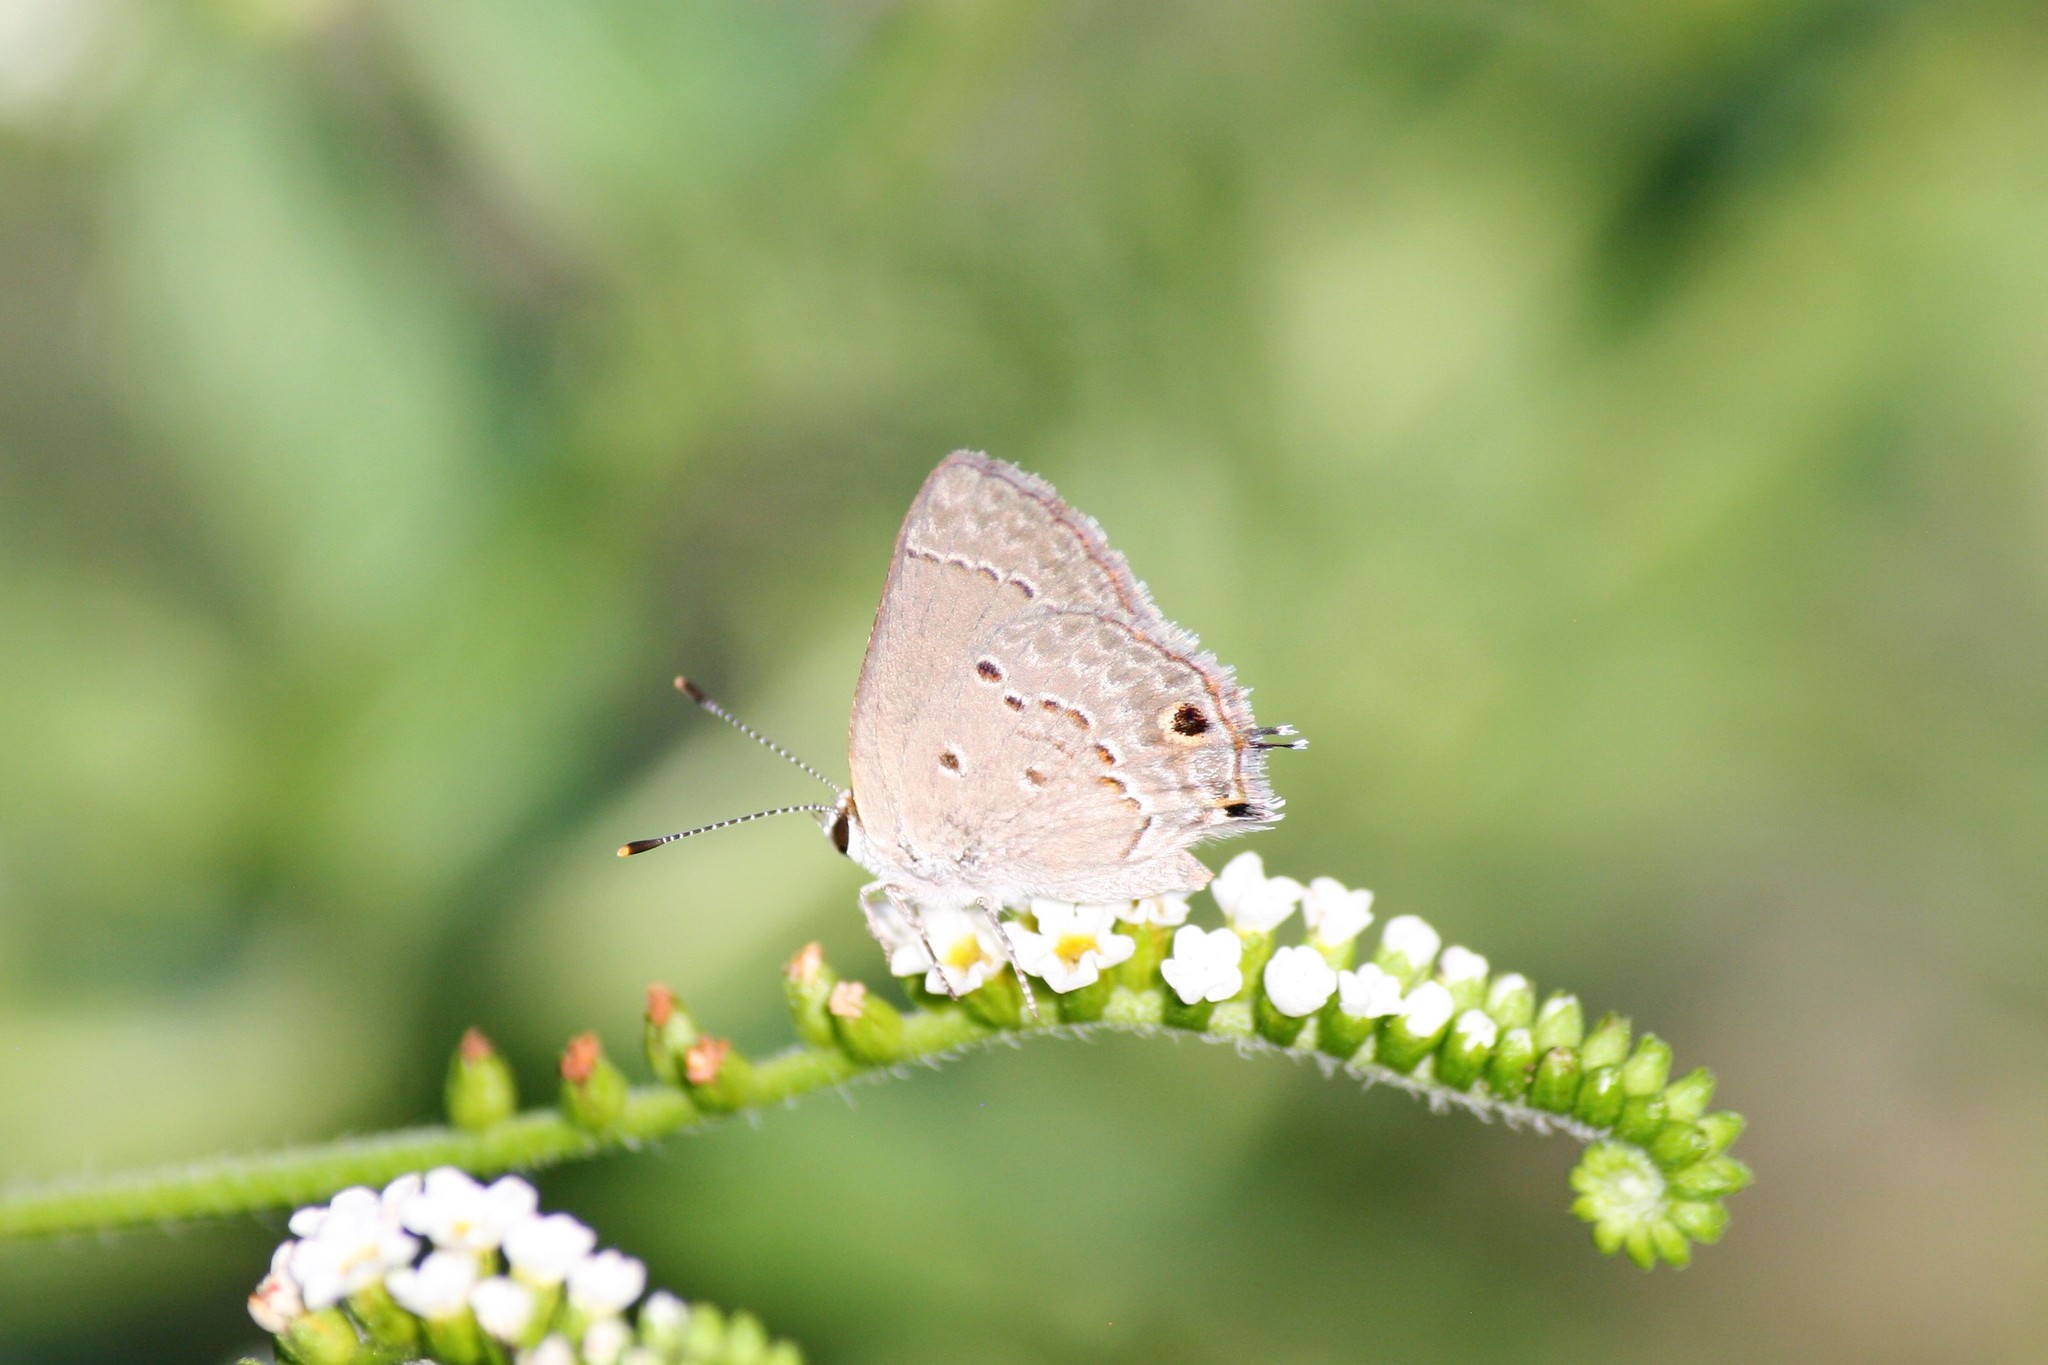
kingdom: Animalia
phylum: Arthropoda
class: Insecta
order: Lepidoptera
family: Lycaenidae
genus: Callicista
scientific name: Callicista columella
